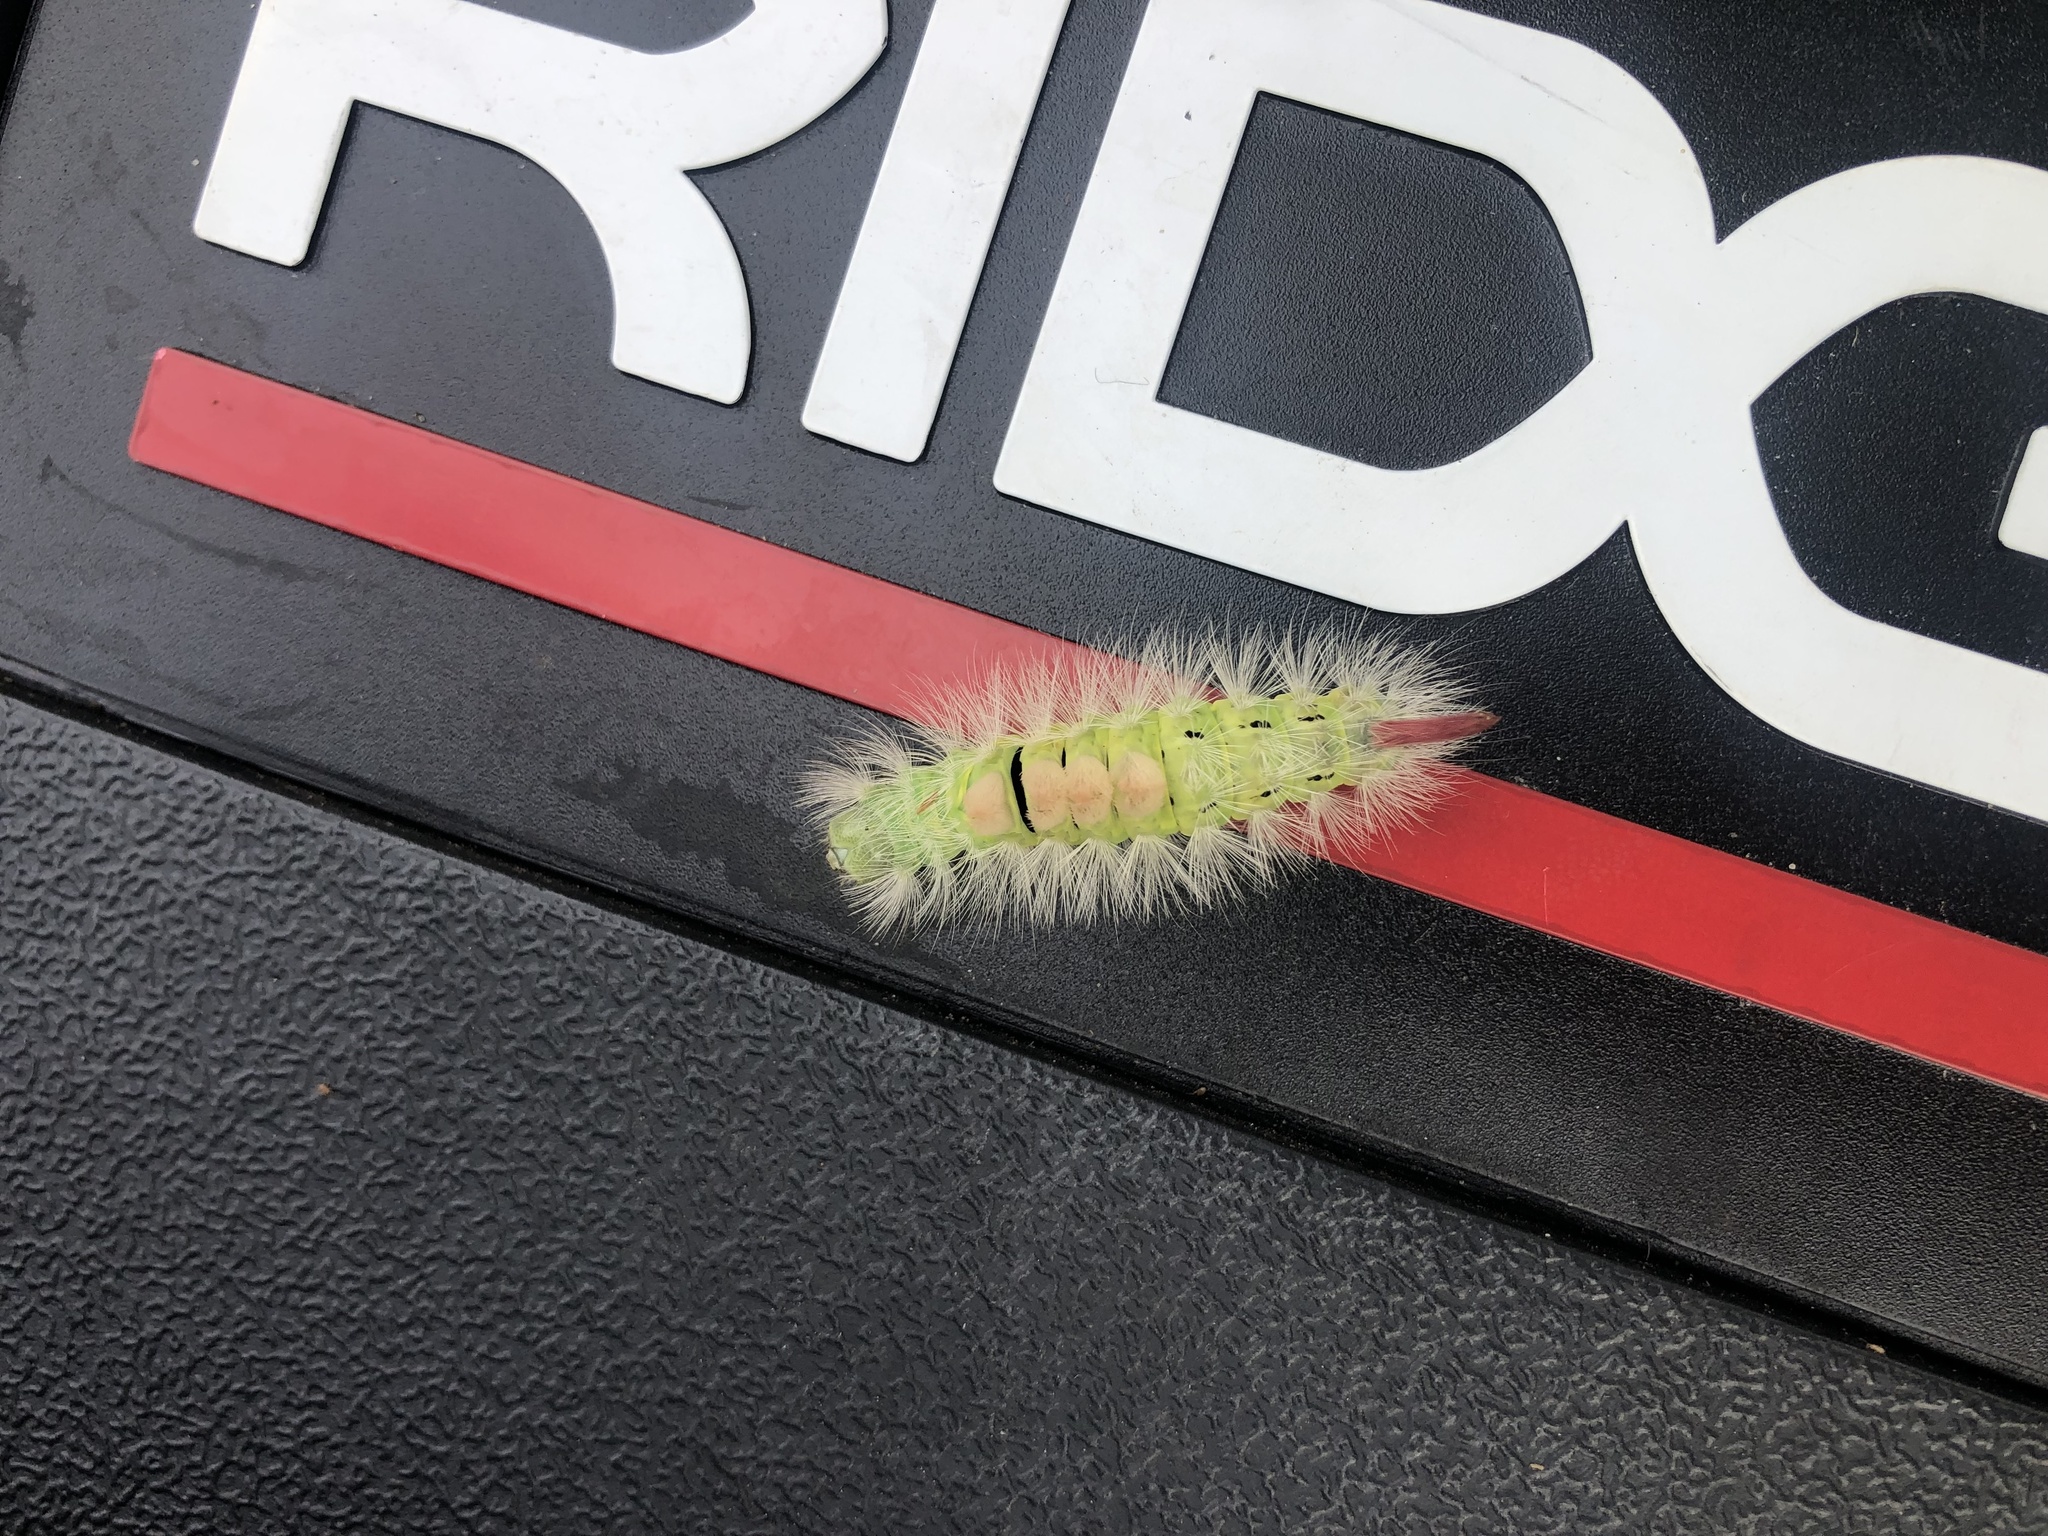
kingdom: Animalia
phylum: Arthropoda
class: Insecta
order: Lepidoptera
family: Erebidae
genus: Calliteara
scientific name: Calliteara pudibunda
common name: Pale tussock
